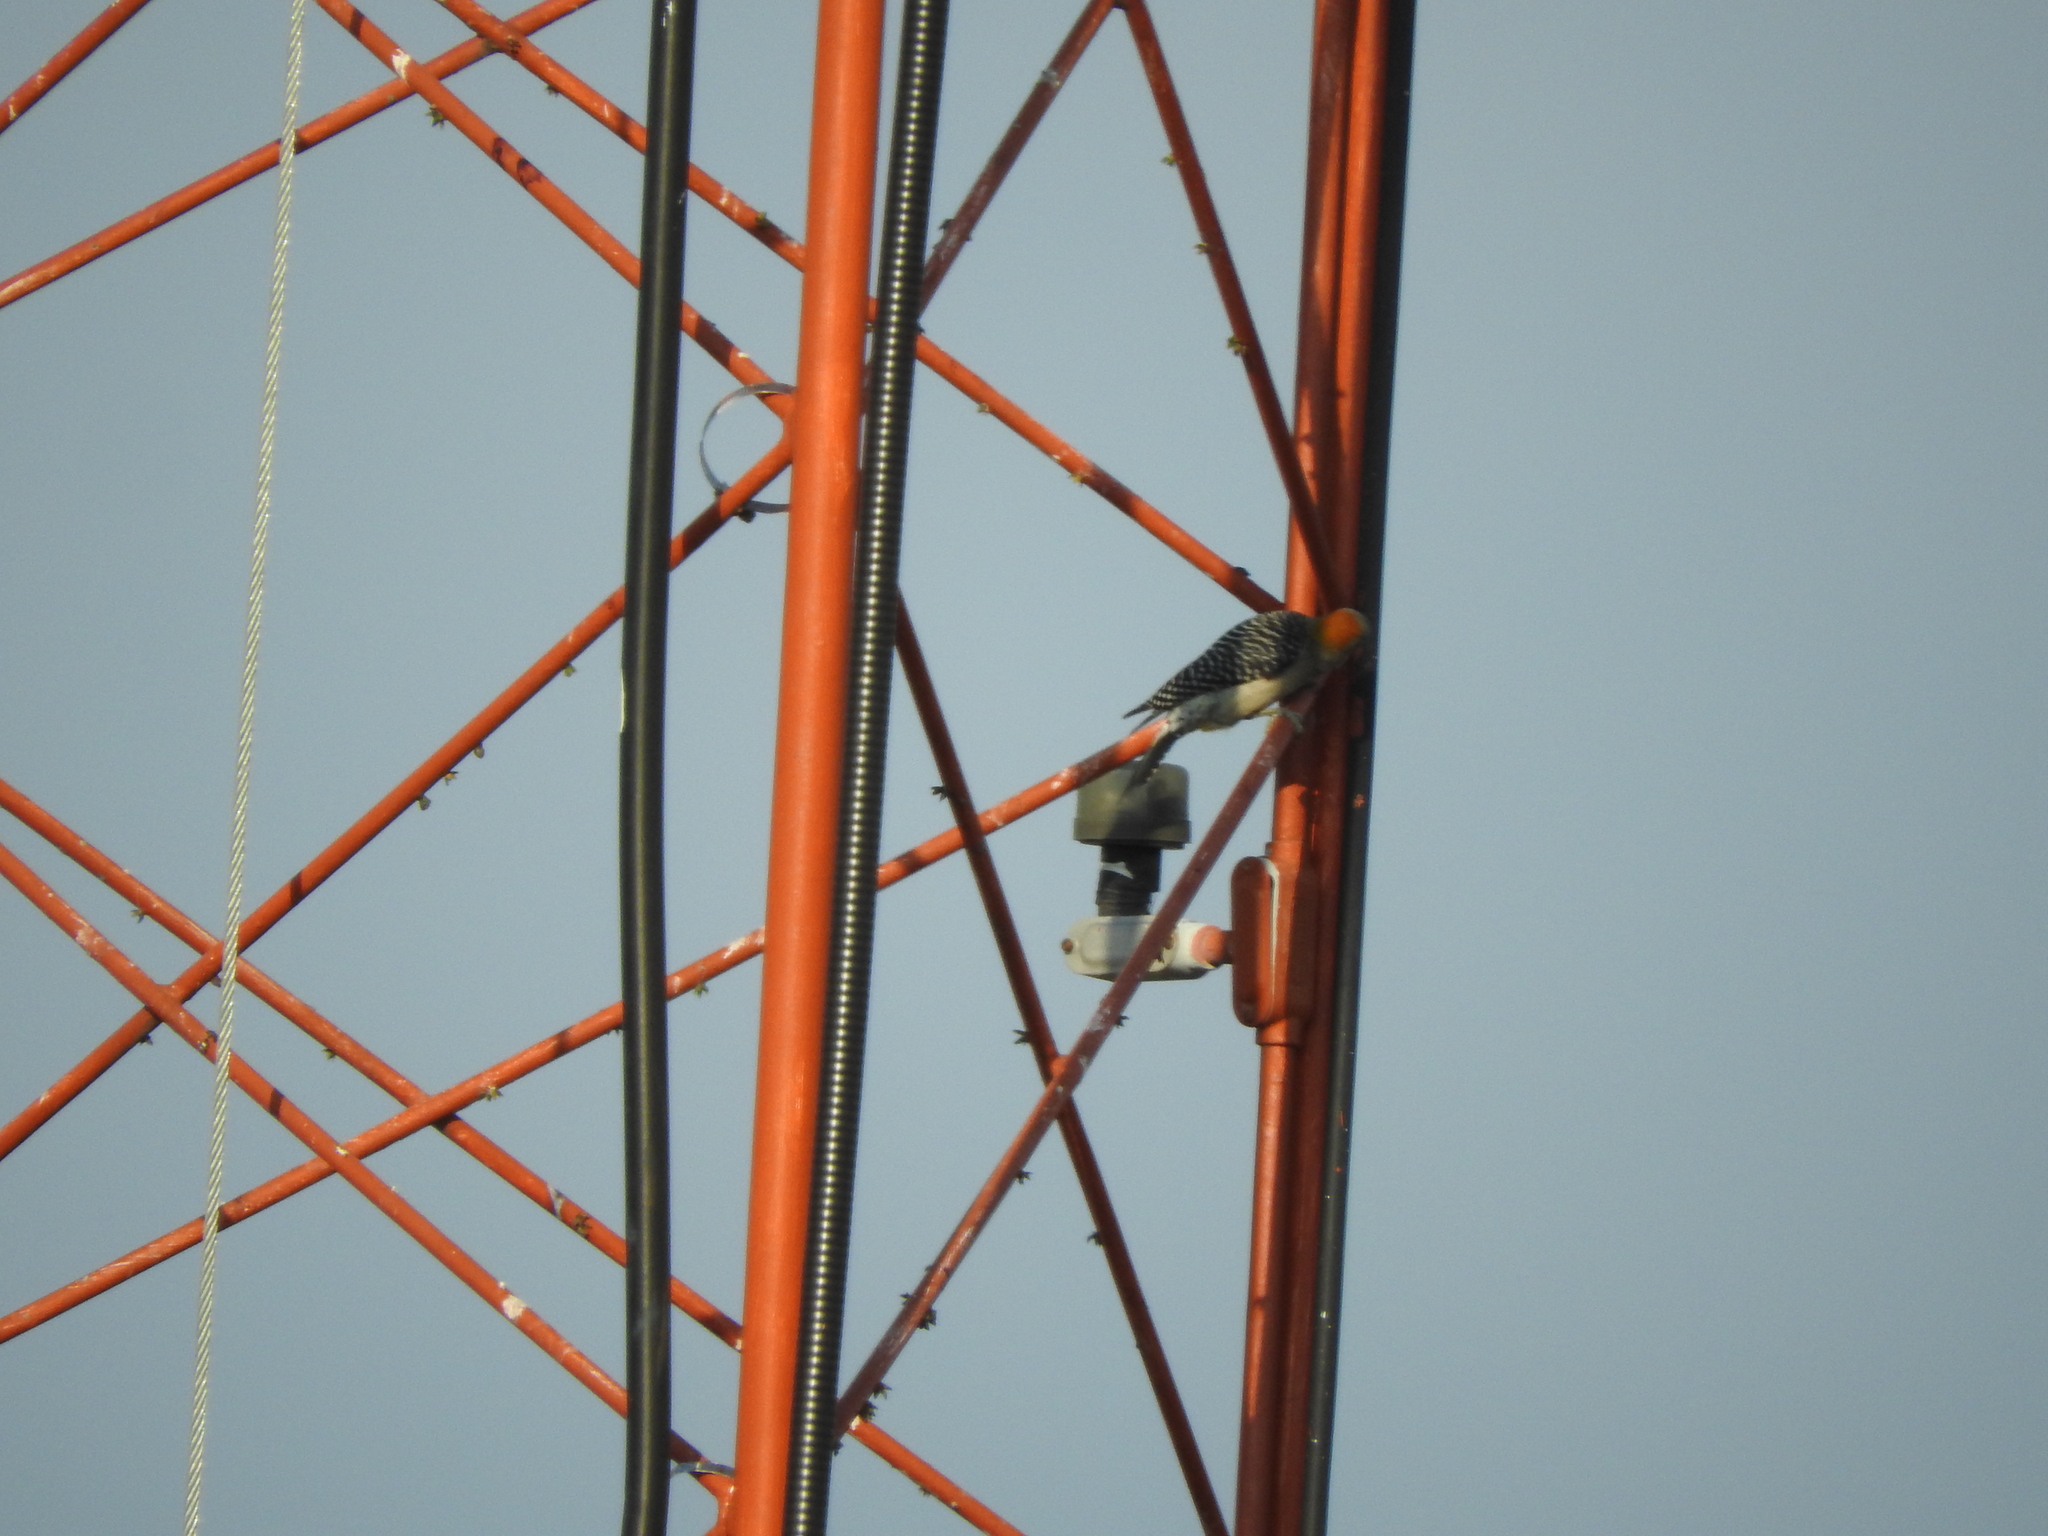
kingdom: Animalia
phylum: Chordata
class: Aves
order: Piciformes
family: Picidae
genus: Melanerpes
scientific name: Melanerpes aurifrons
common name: Golden-fronted woodpecker
